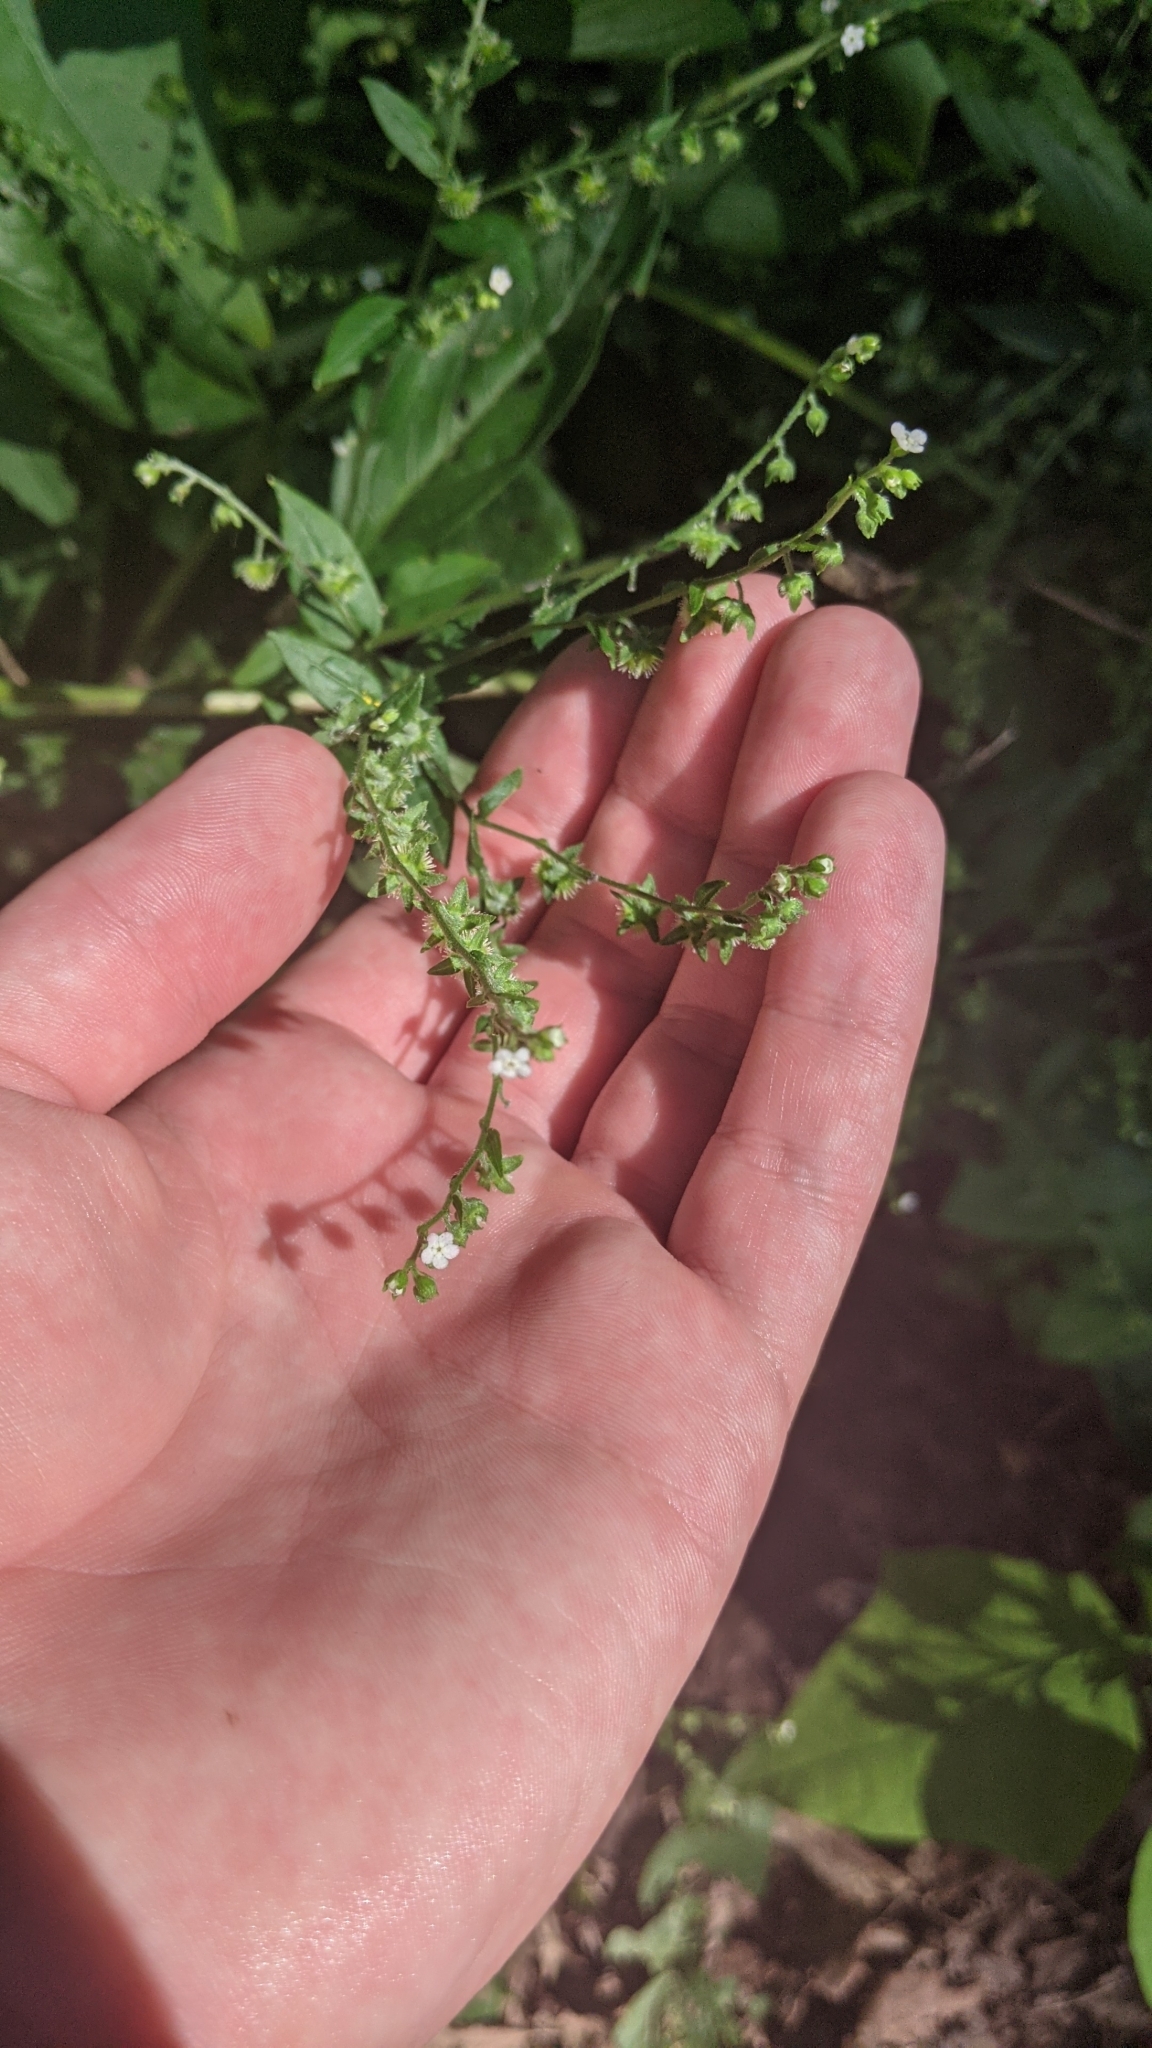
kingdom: Plantae
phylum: Tracheophyta
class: Magnoliopsida
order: Boraginales
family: Boraginaceae
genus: Hackelia
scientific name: Hackelia virginiana
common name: Beggar's-lice
